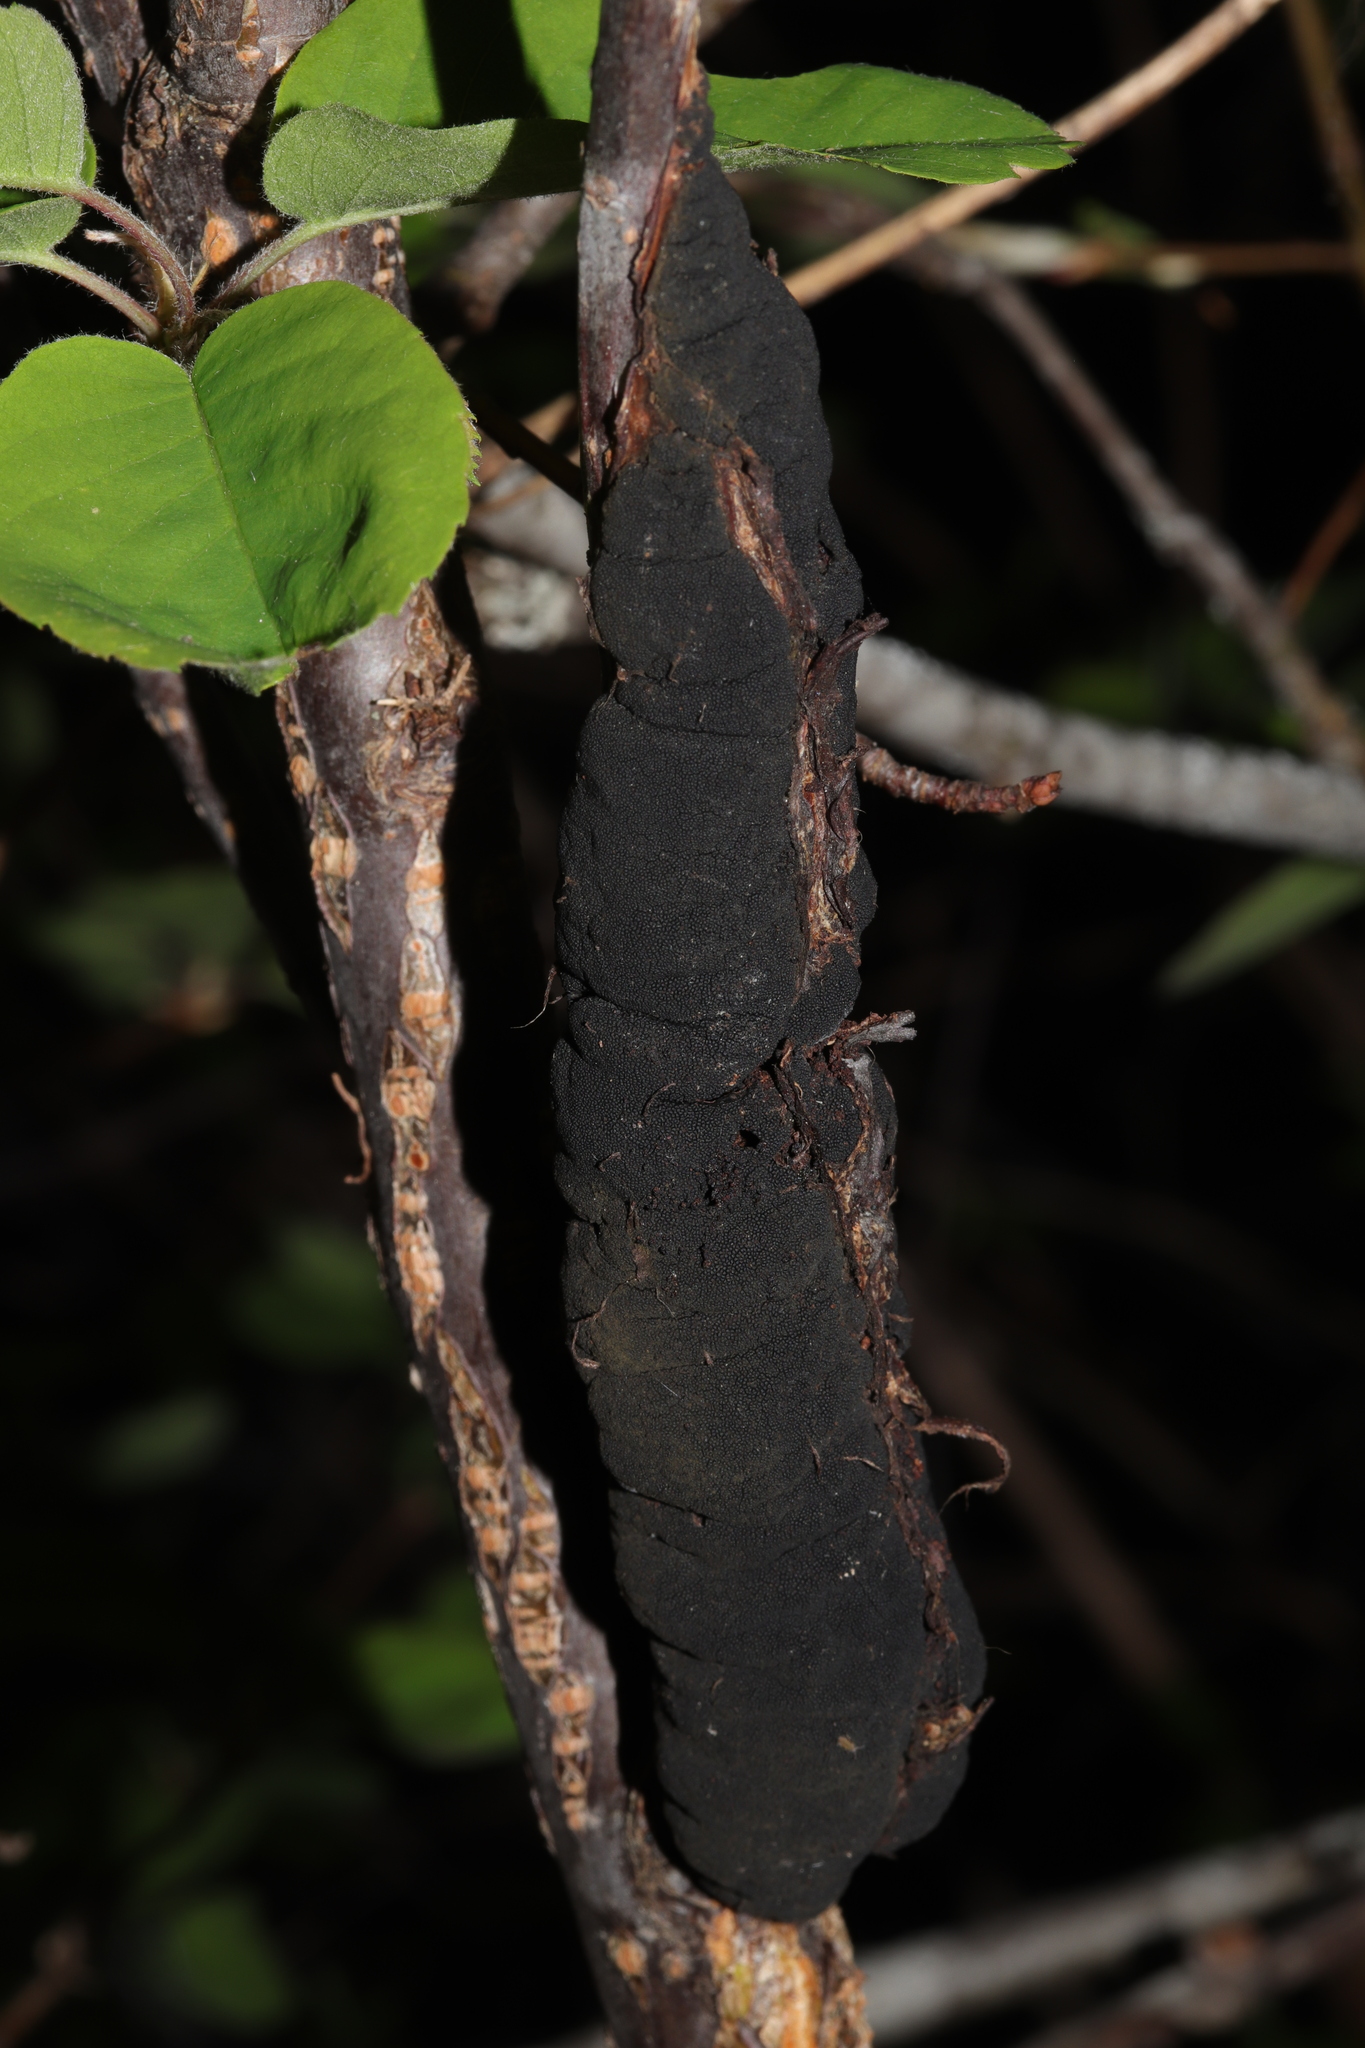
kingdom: Fungi
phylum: Ascomycota
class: Dothideomycetes
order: Venturiales
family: Venturiaceae
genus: Apiosporina
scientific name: Apiosporina morbosa
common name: Black knot
